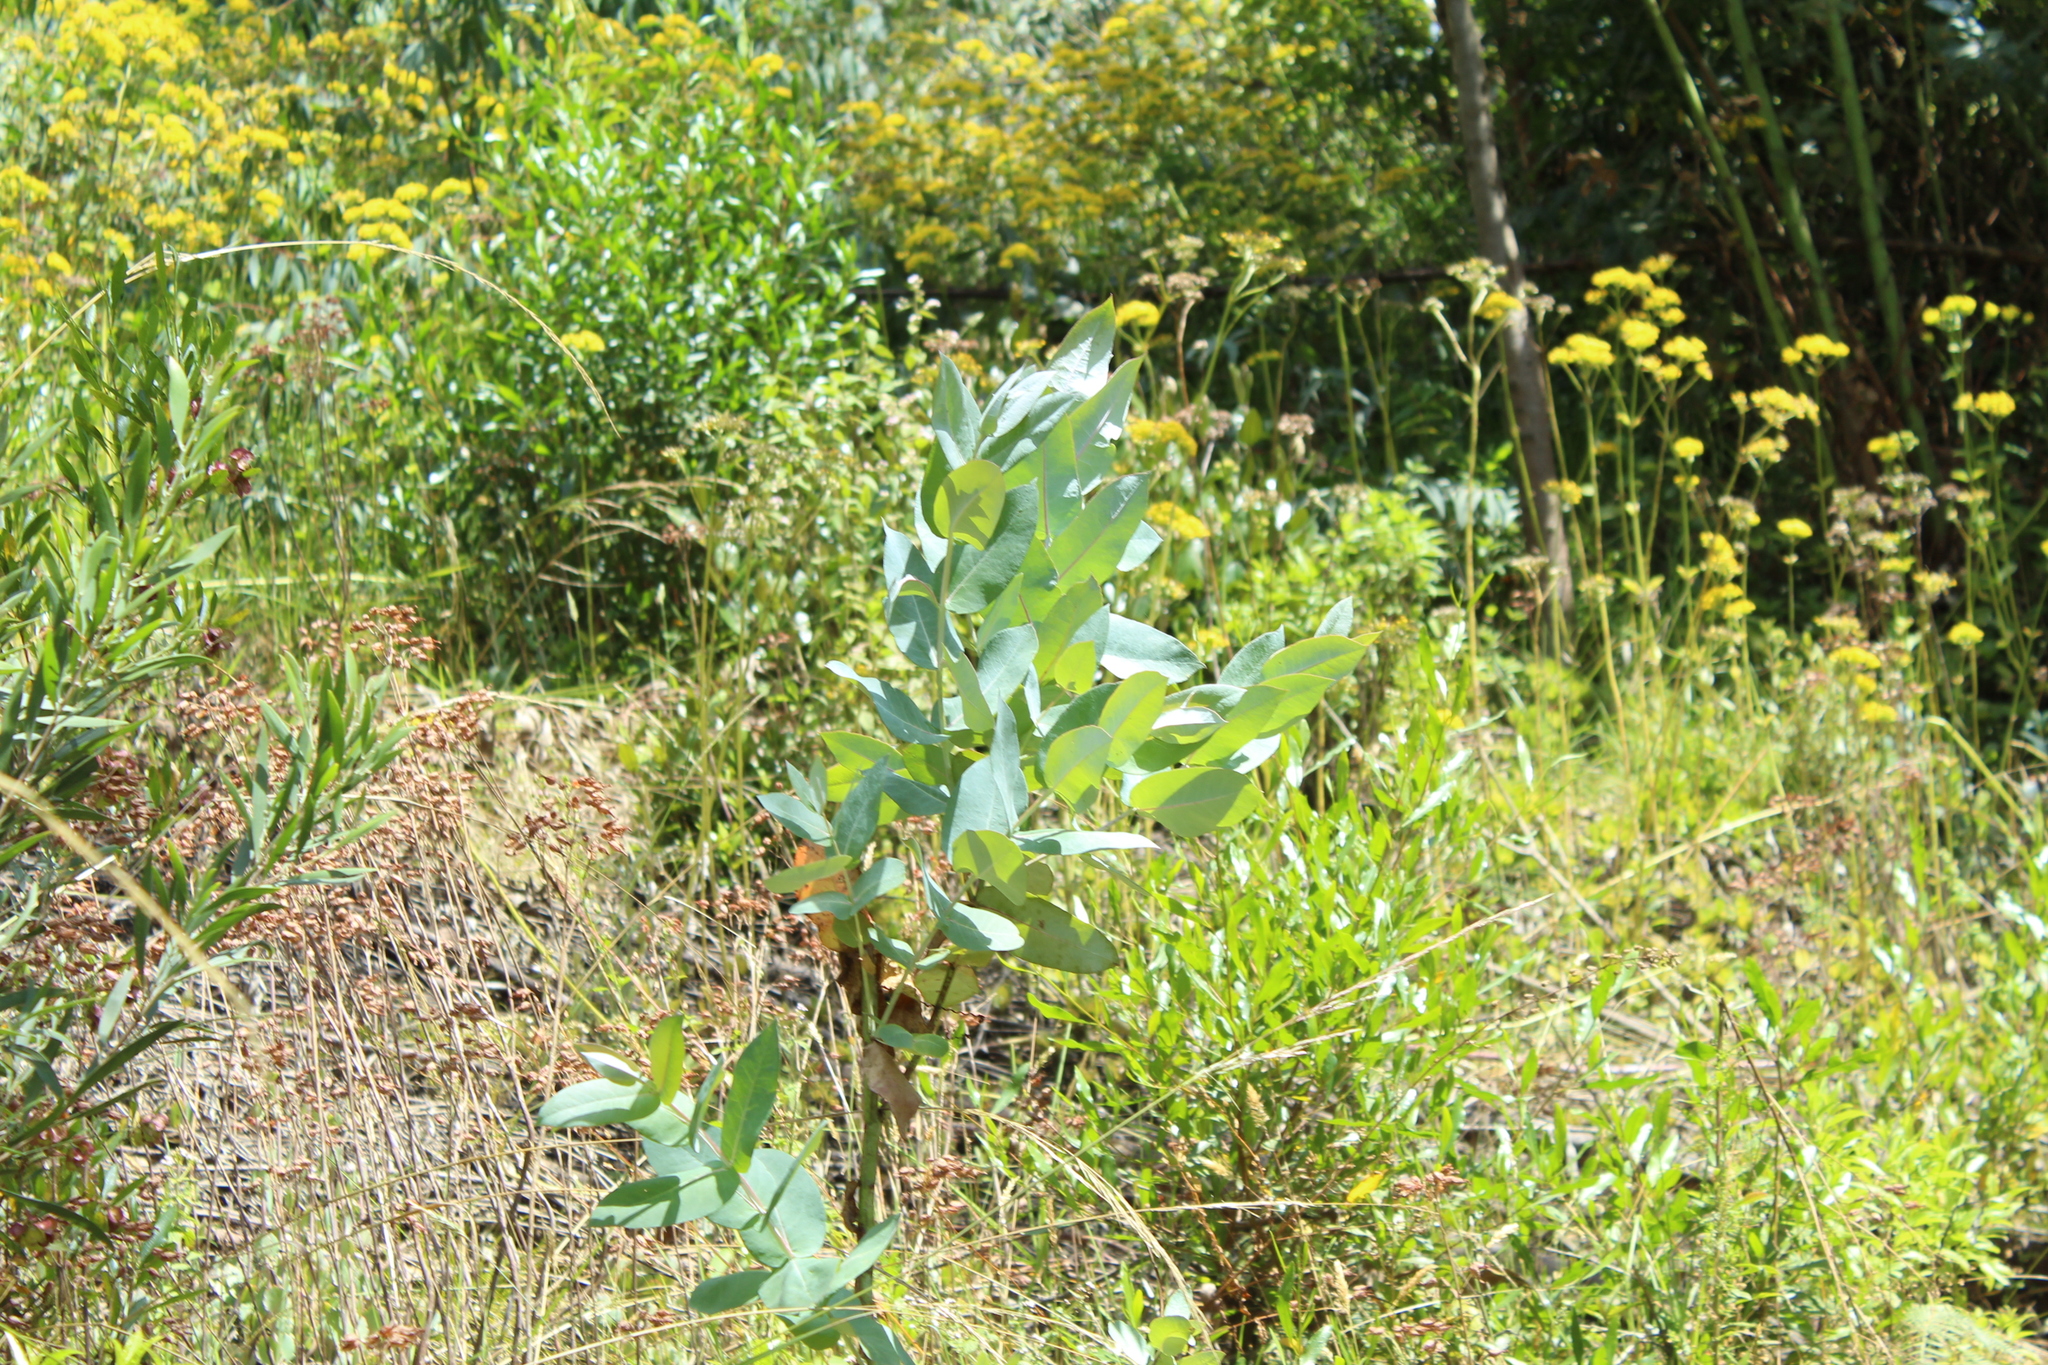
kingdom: Plantae
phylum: Tracheophyta
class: Magnoliopsida
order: Myrtales
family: Myrtaceae
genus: Eucalyptus
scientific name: Eucalyptus globulus
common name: Southern blue-gum
